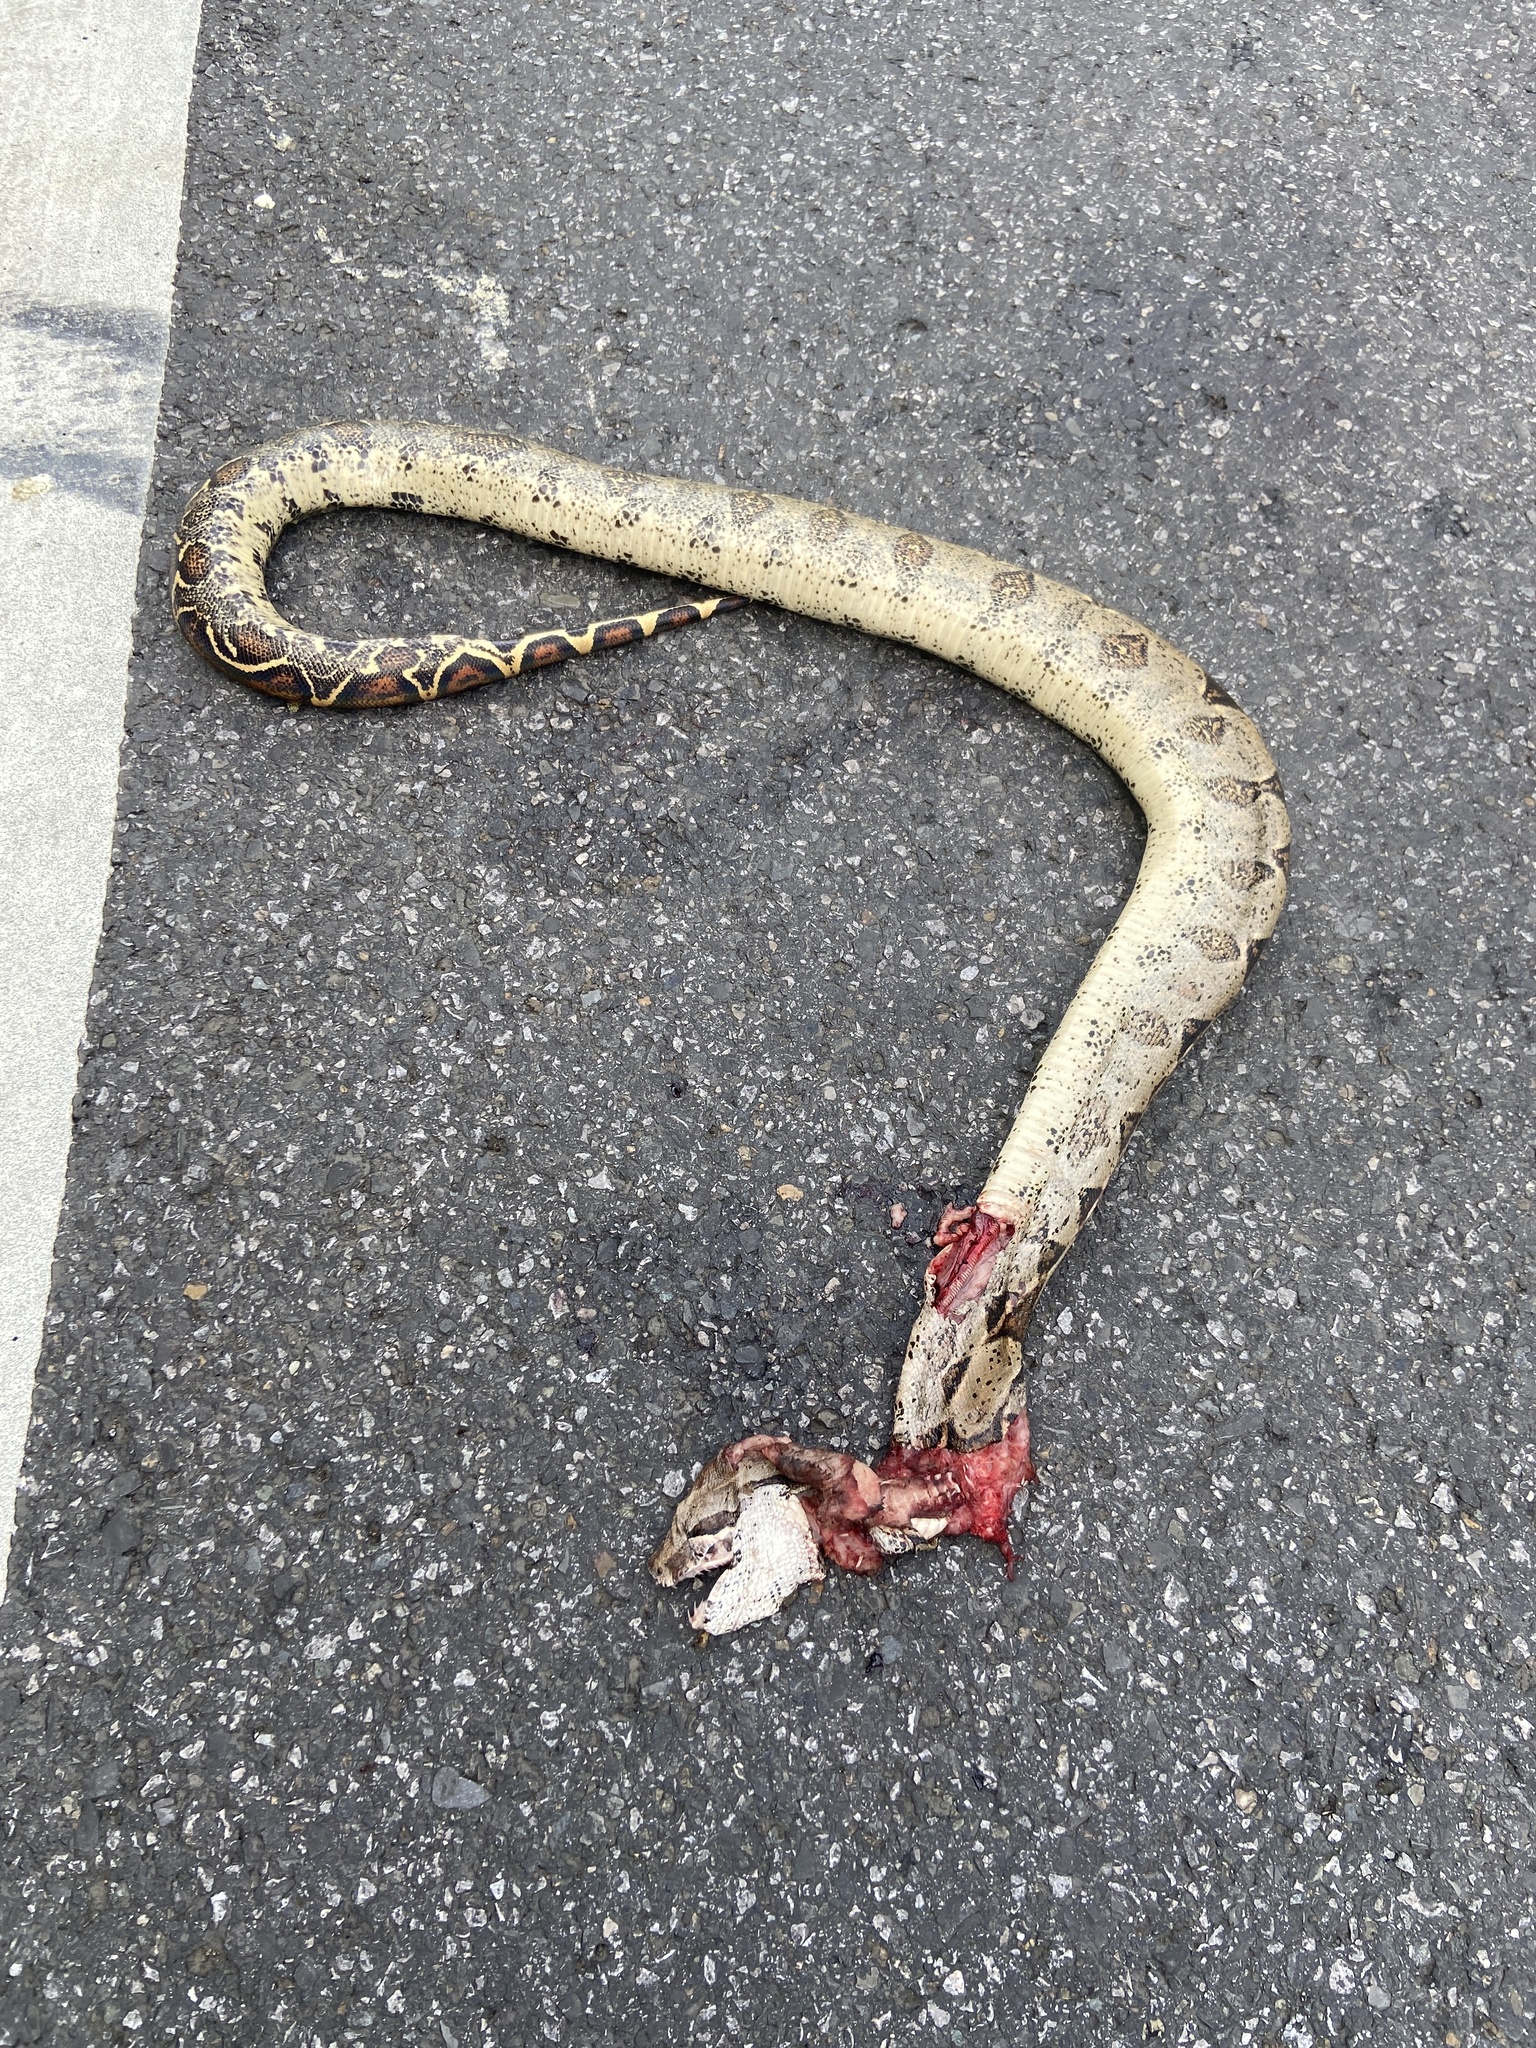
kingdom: Animalia
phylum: Chordata
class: Squamata
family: Boidae
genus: Boa
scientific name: Boa constrictor
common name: Boa constrictor
